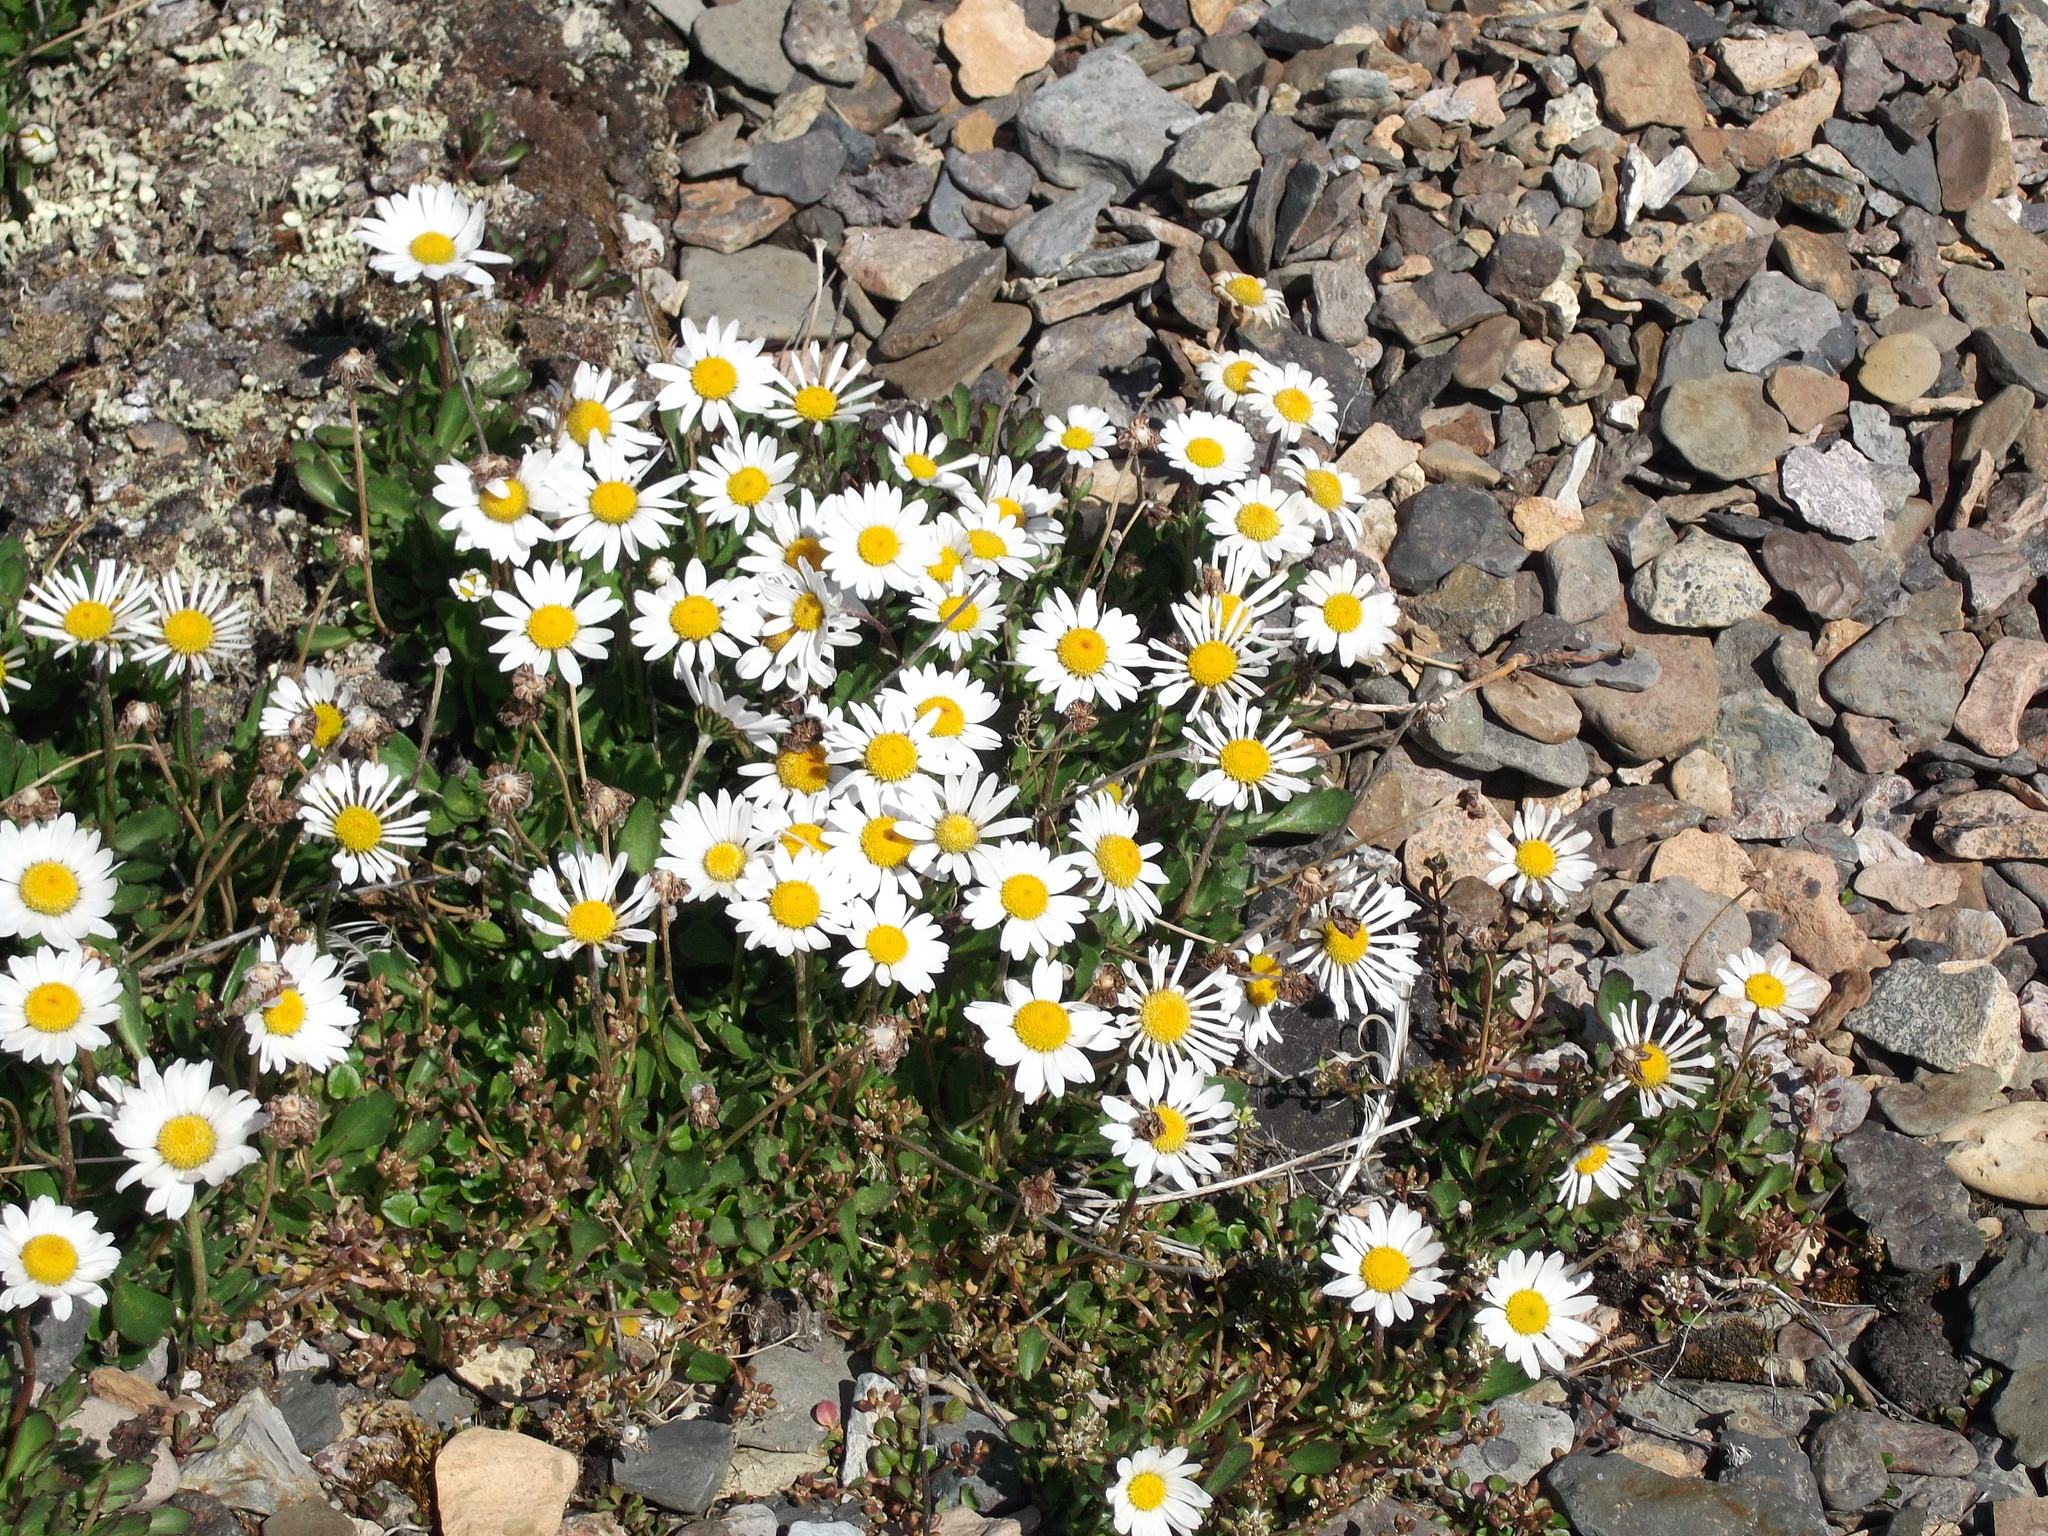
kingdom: Plantae
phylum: Tracheophyta
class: Magnoliopsida
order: Asterales
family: Asteraceae
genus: Arctanthemum
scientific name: Arctanthemum arcticum
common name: Arctic daisy
